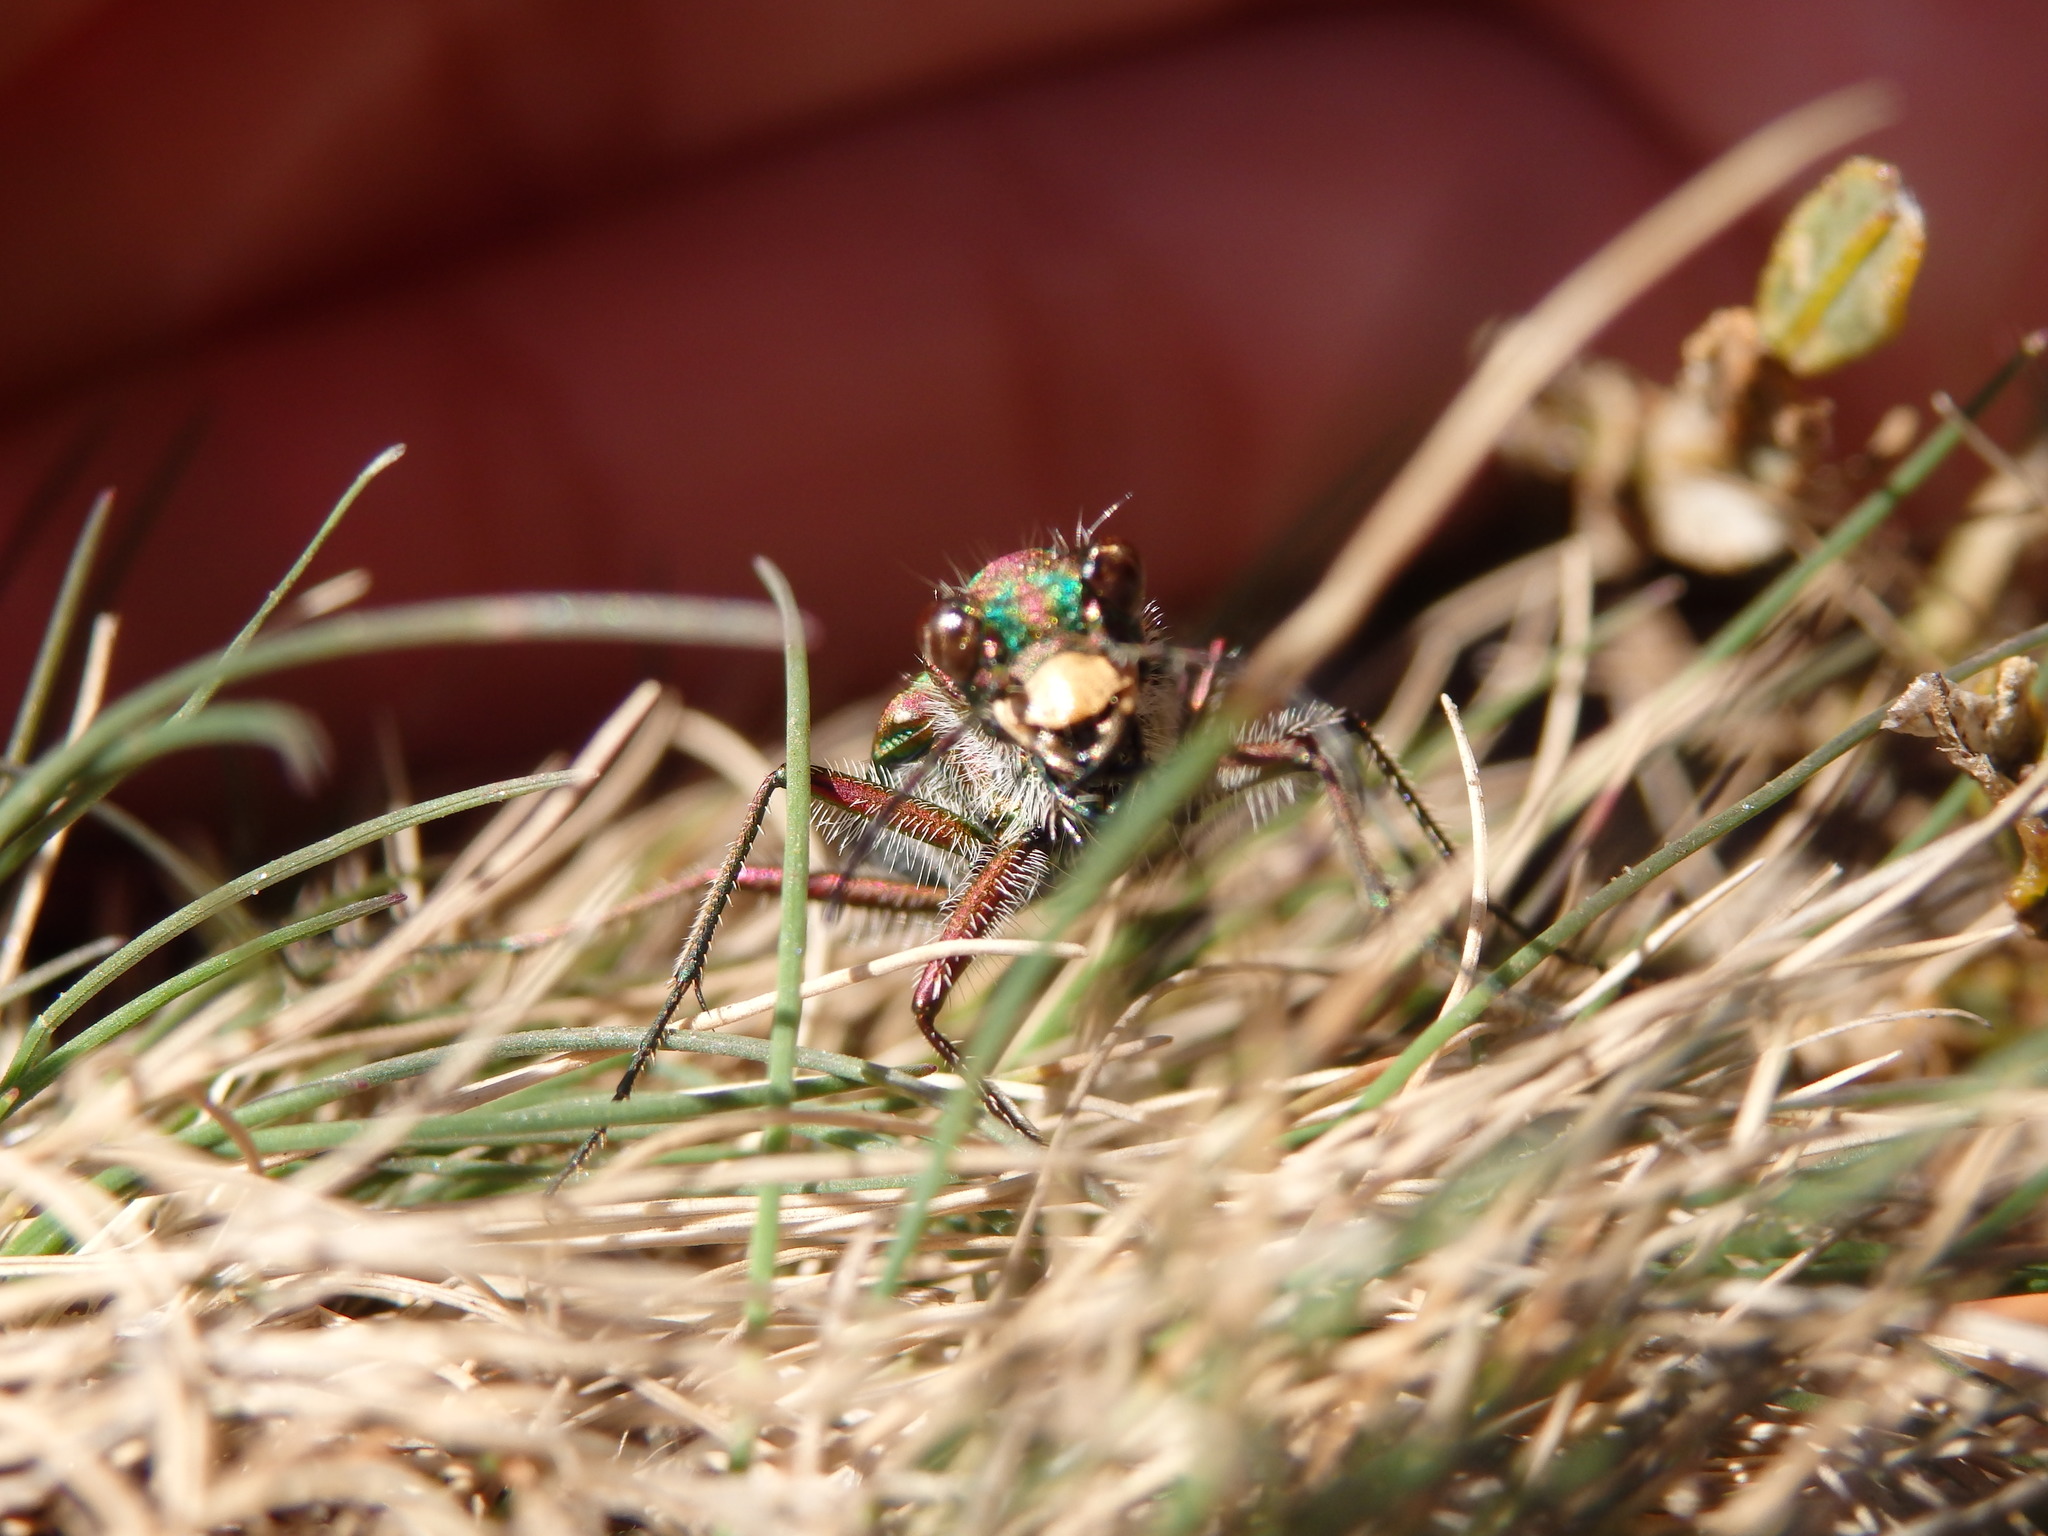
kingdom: Animalia
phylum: Arthropoda
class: Insecta
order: Coleoptera
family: Carabidae
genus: Cicindela
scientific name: Cicindela maroccana
